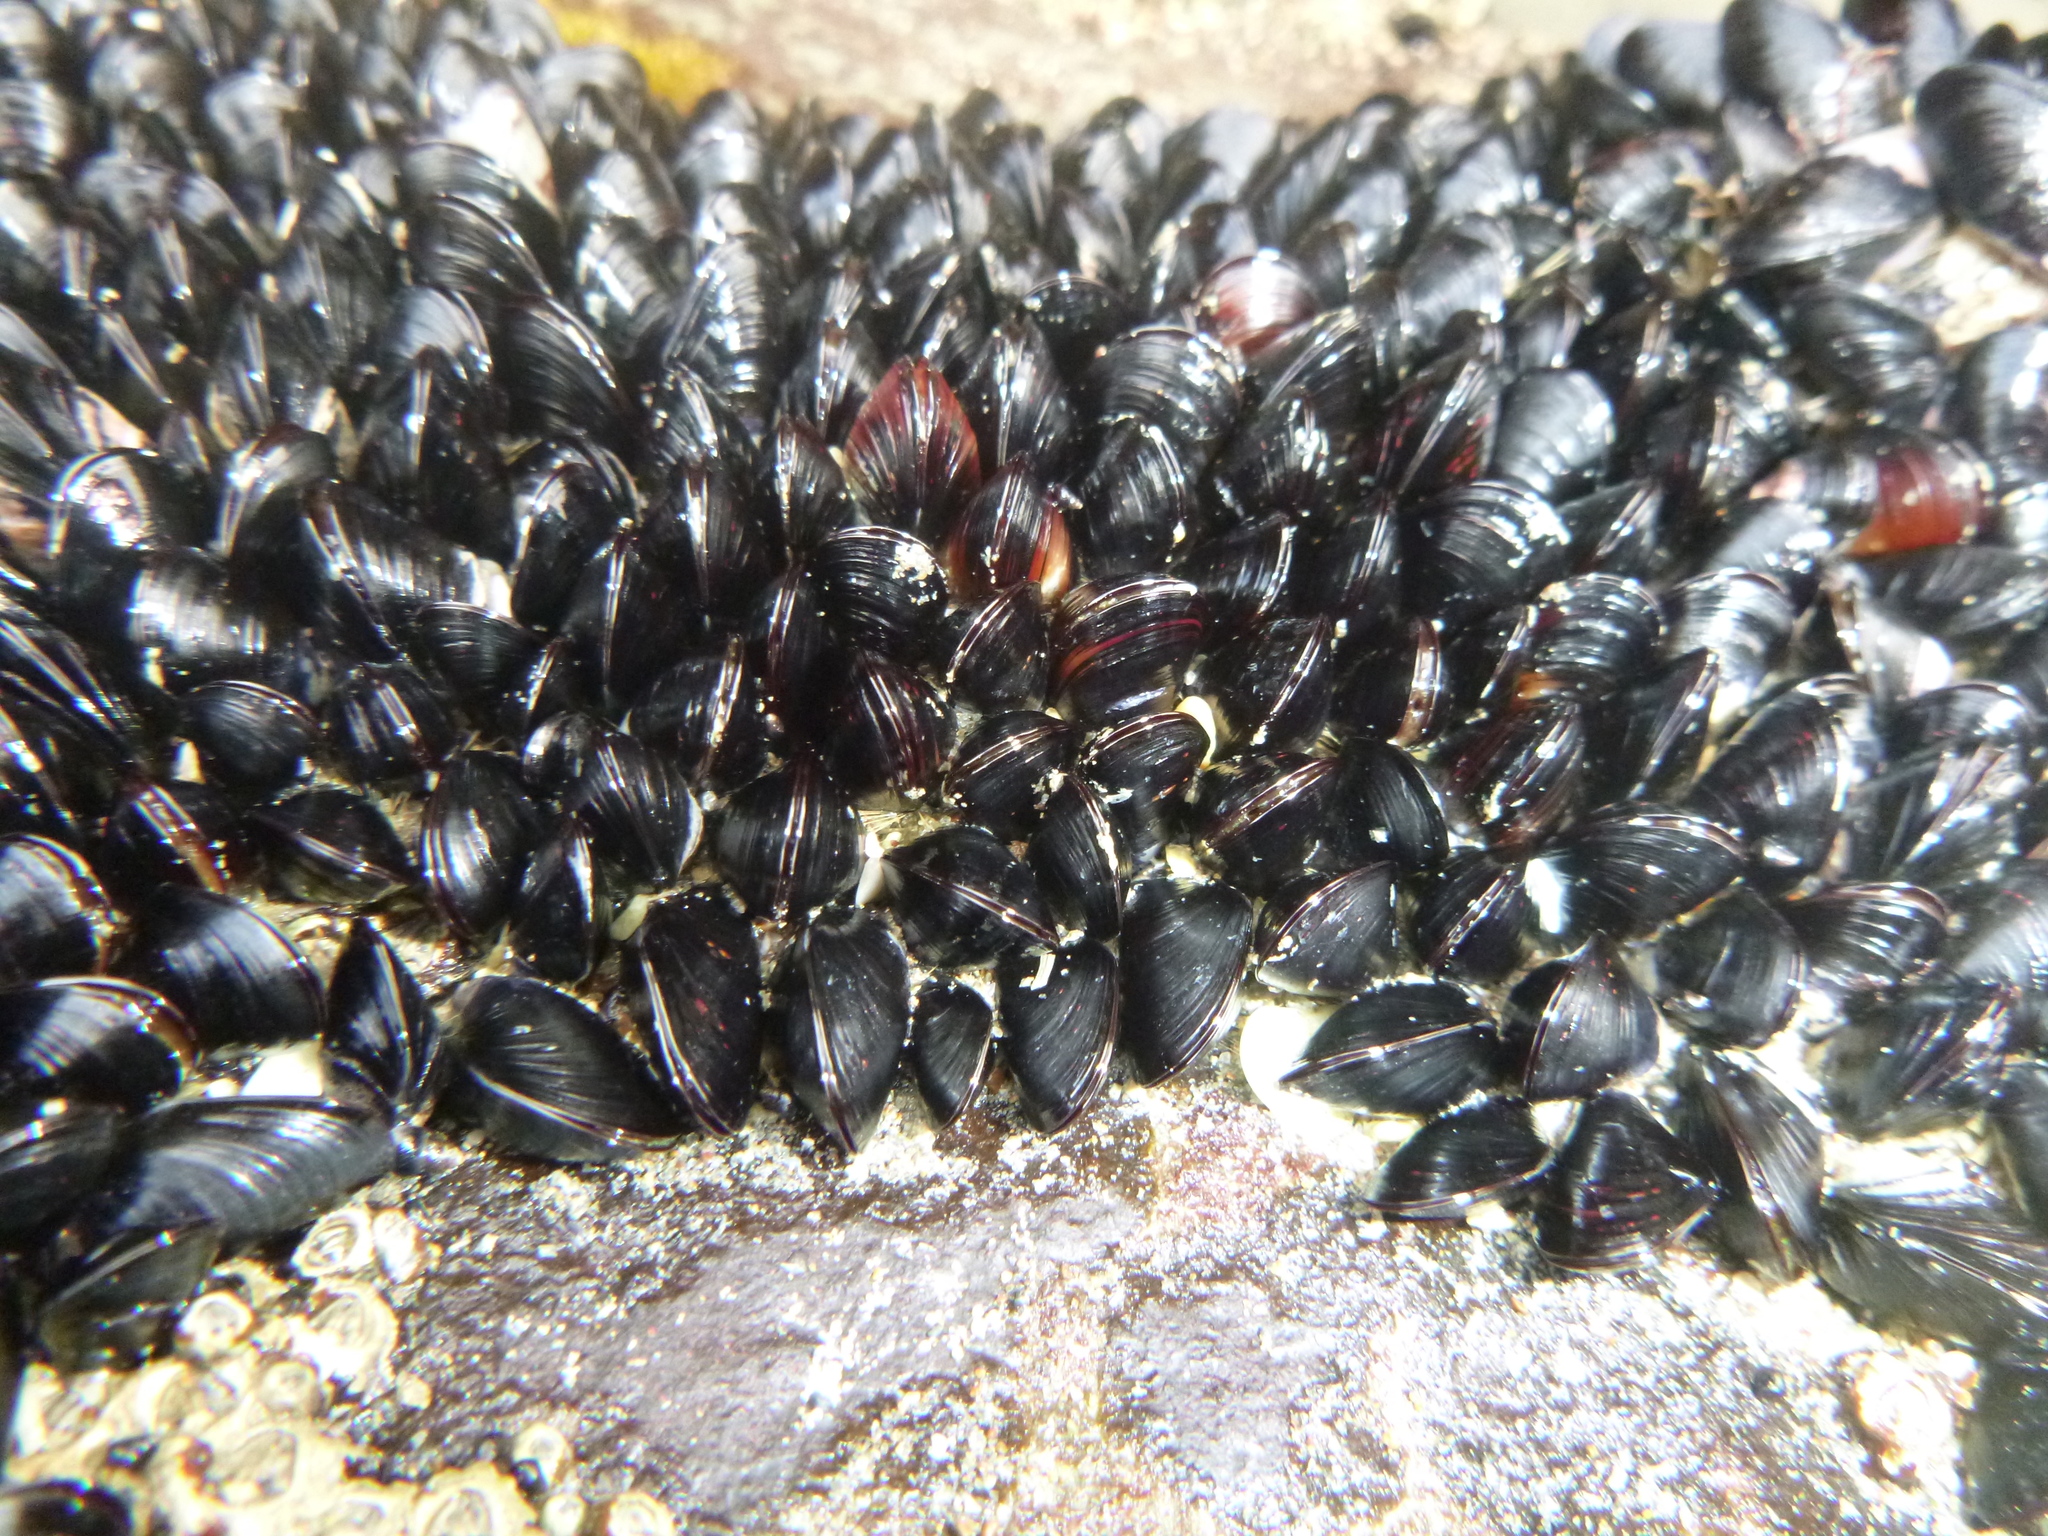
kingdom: Animalia
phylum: Mollusca
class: Bivalvia
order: Mytilida
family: Mytilidae
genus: Xenostrobus
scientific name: Xenostrobus neozelanicus
